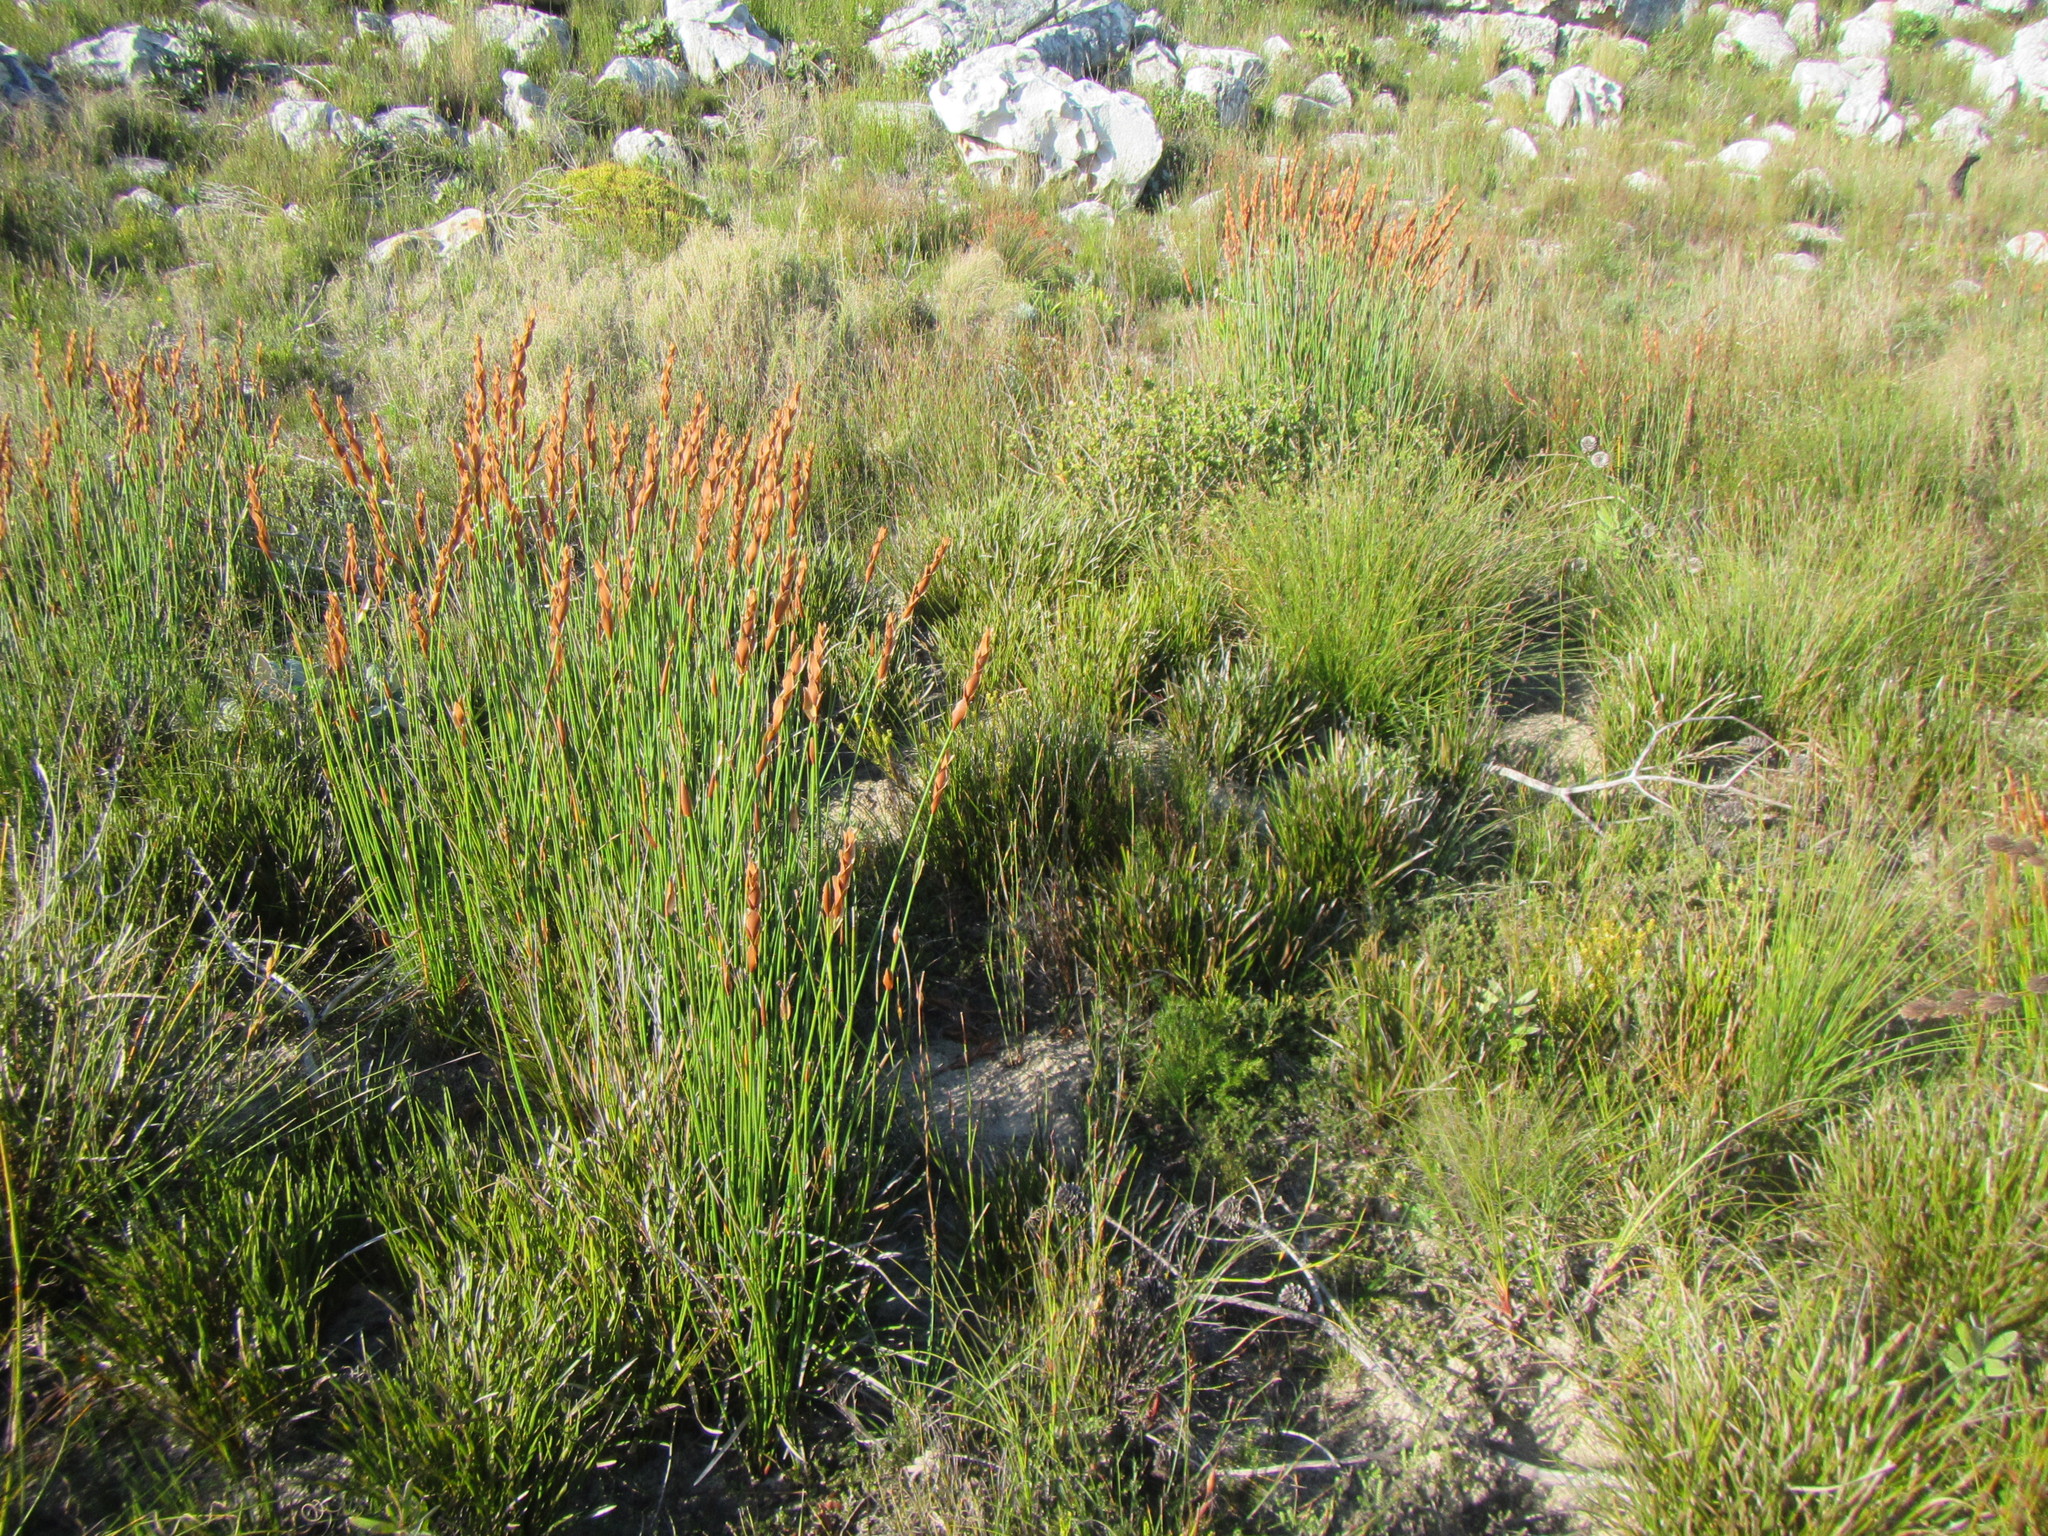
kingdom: Plantae
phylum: Tracheophyta
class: Liliopsida
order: Poales
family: Restionaceae
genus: Elegia
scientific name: Elegia racemosa
